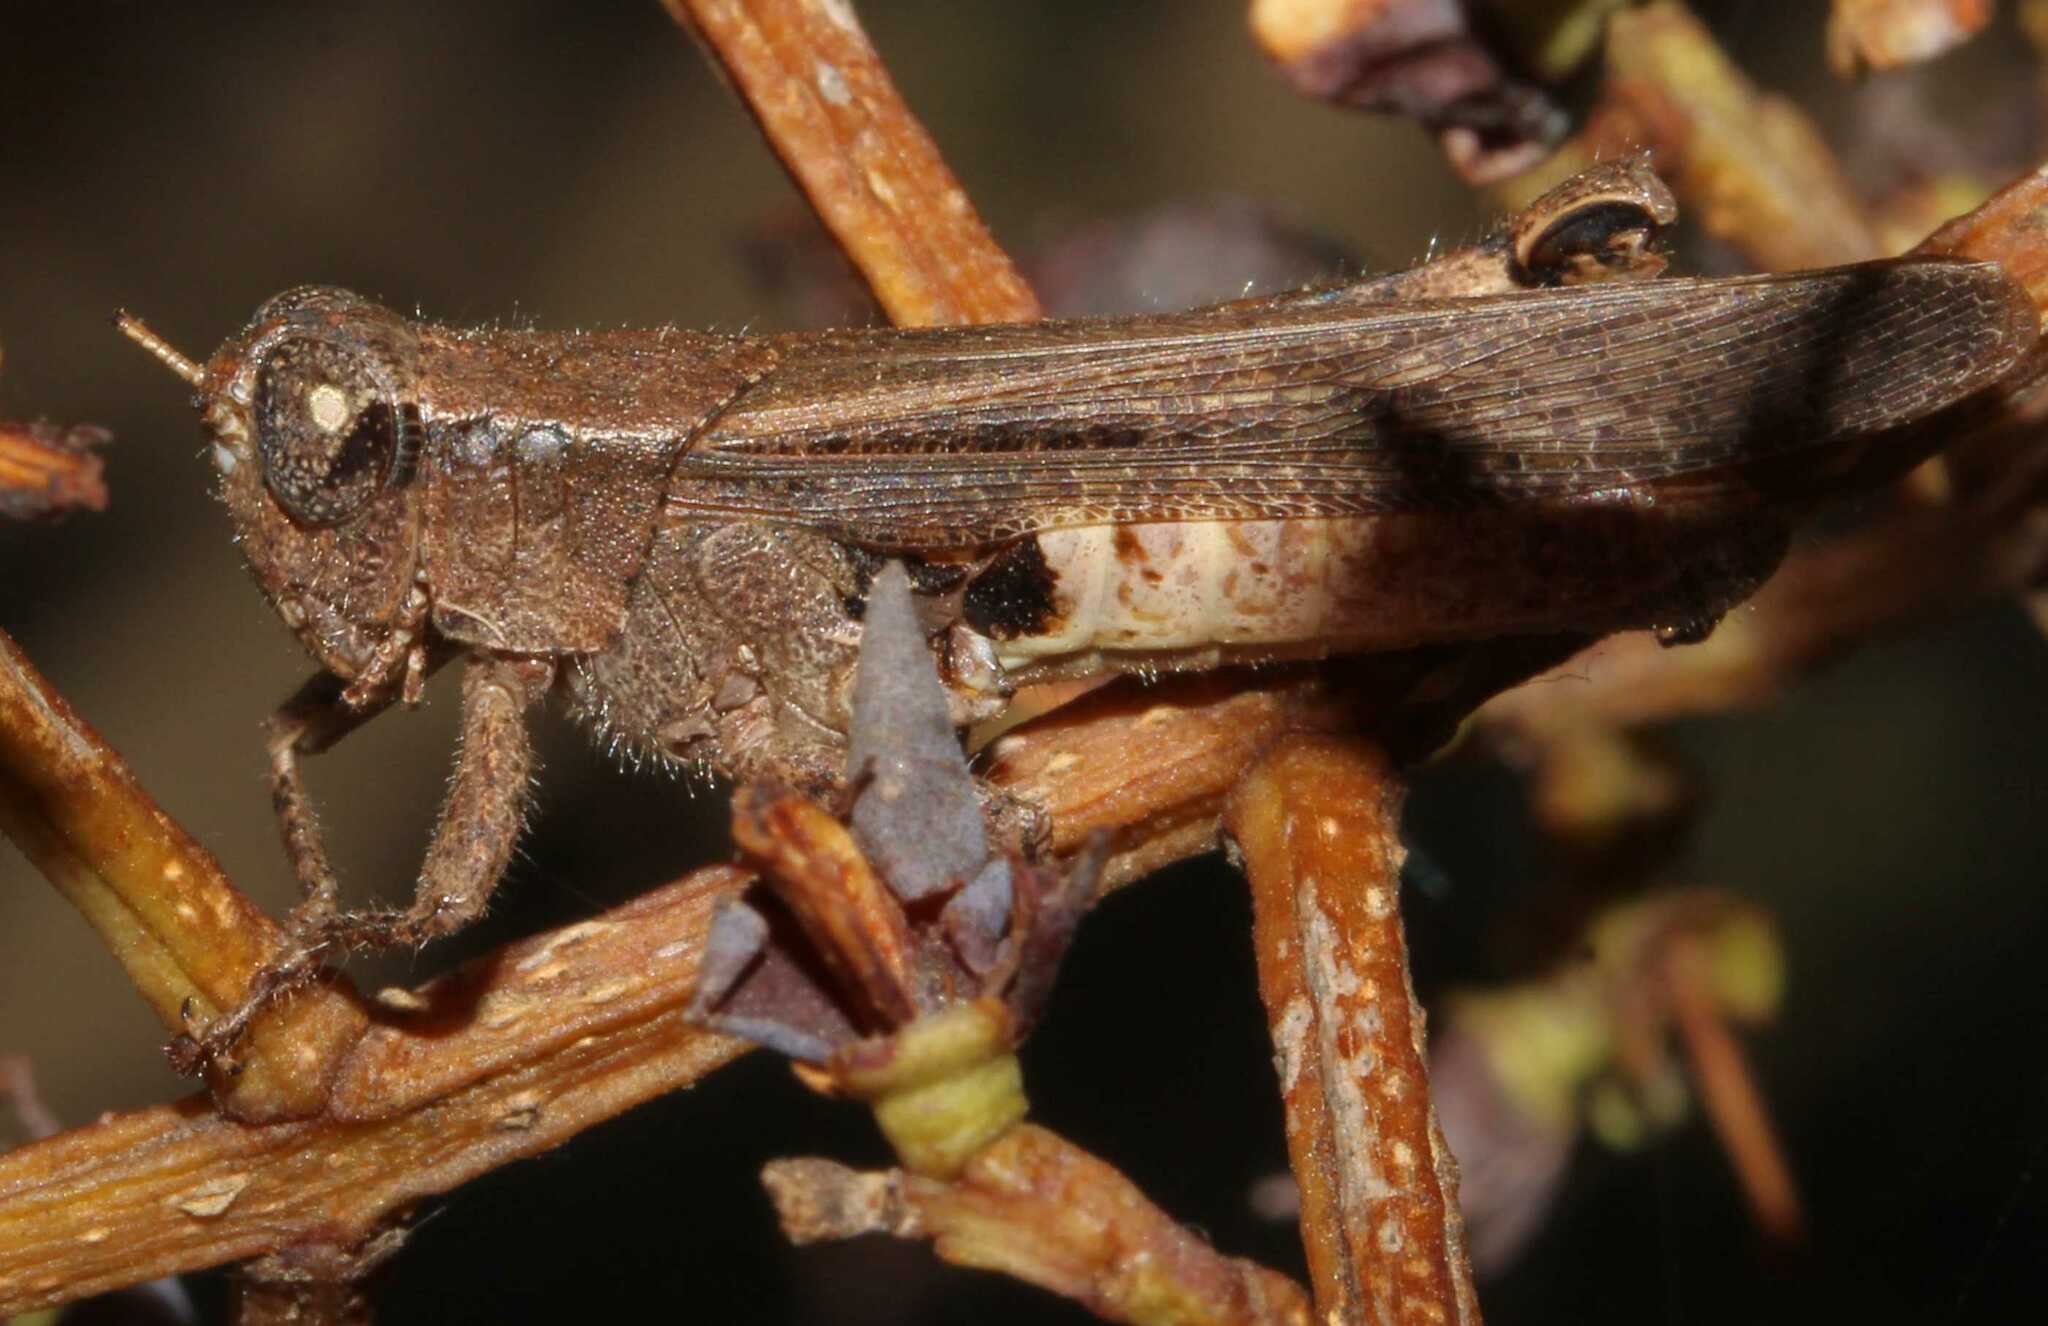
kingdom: Animalia
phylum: Arthropoda
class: Insecta
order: Orthoptera
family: Acrididae
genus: Aidemona
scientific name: Aidemona azteca
